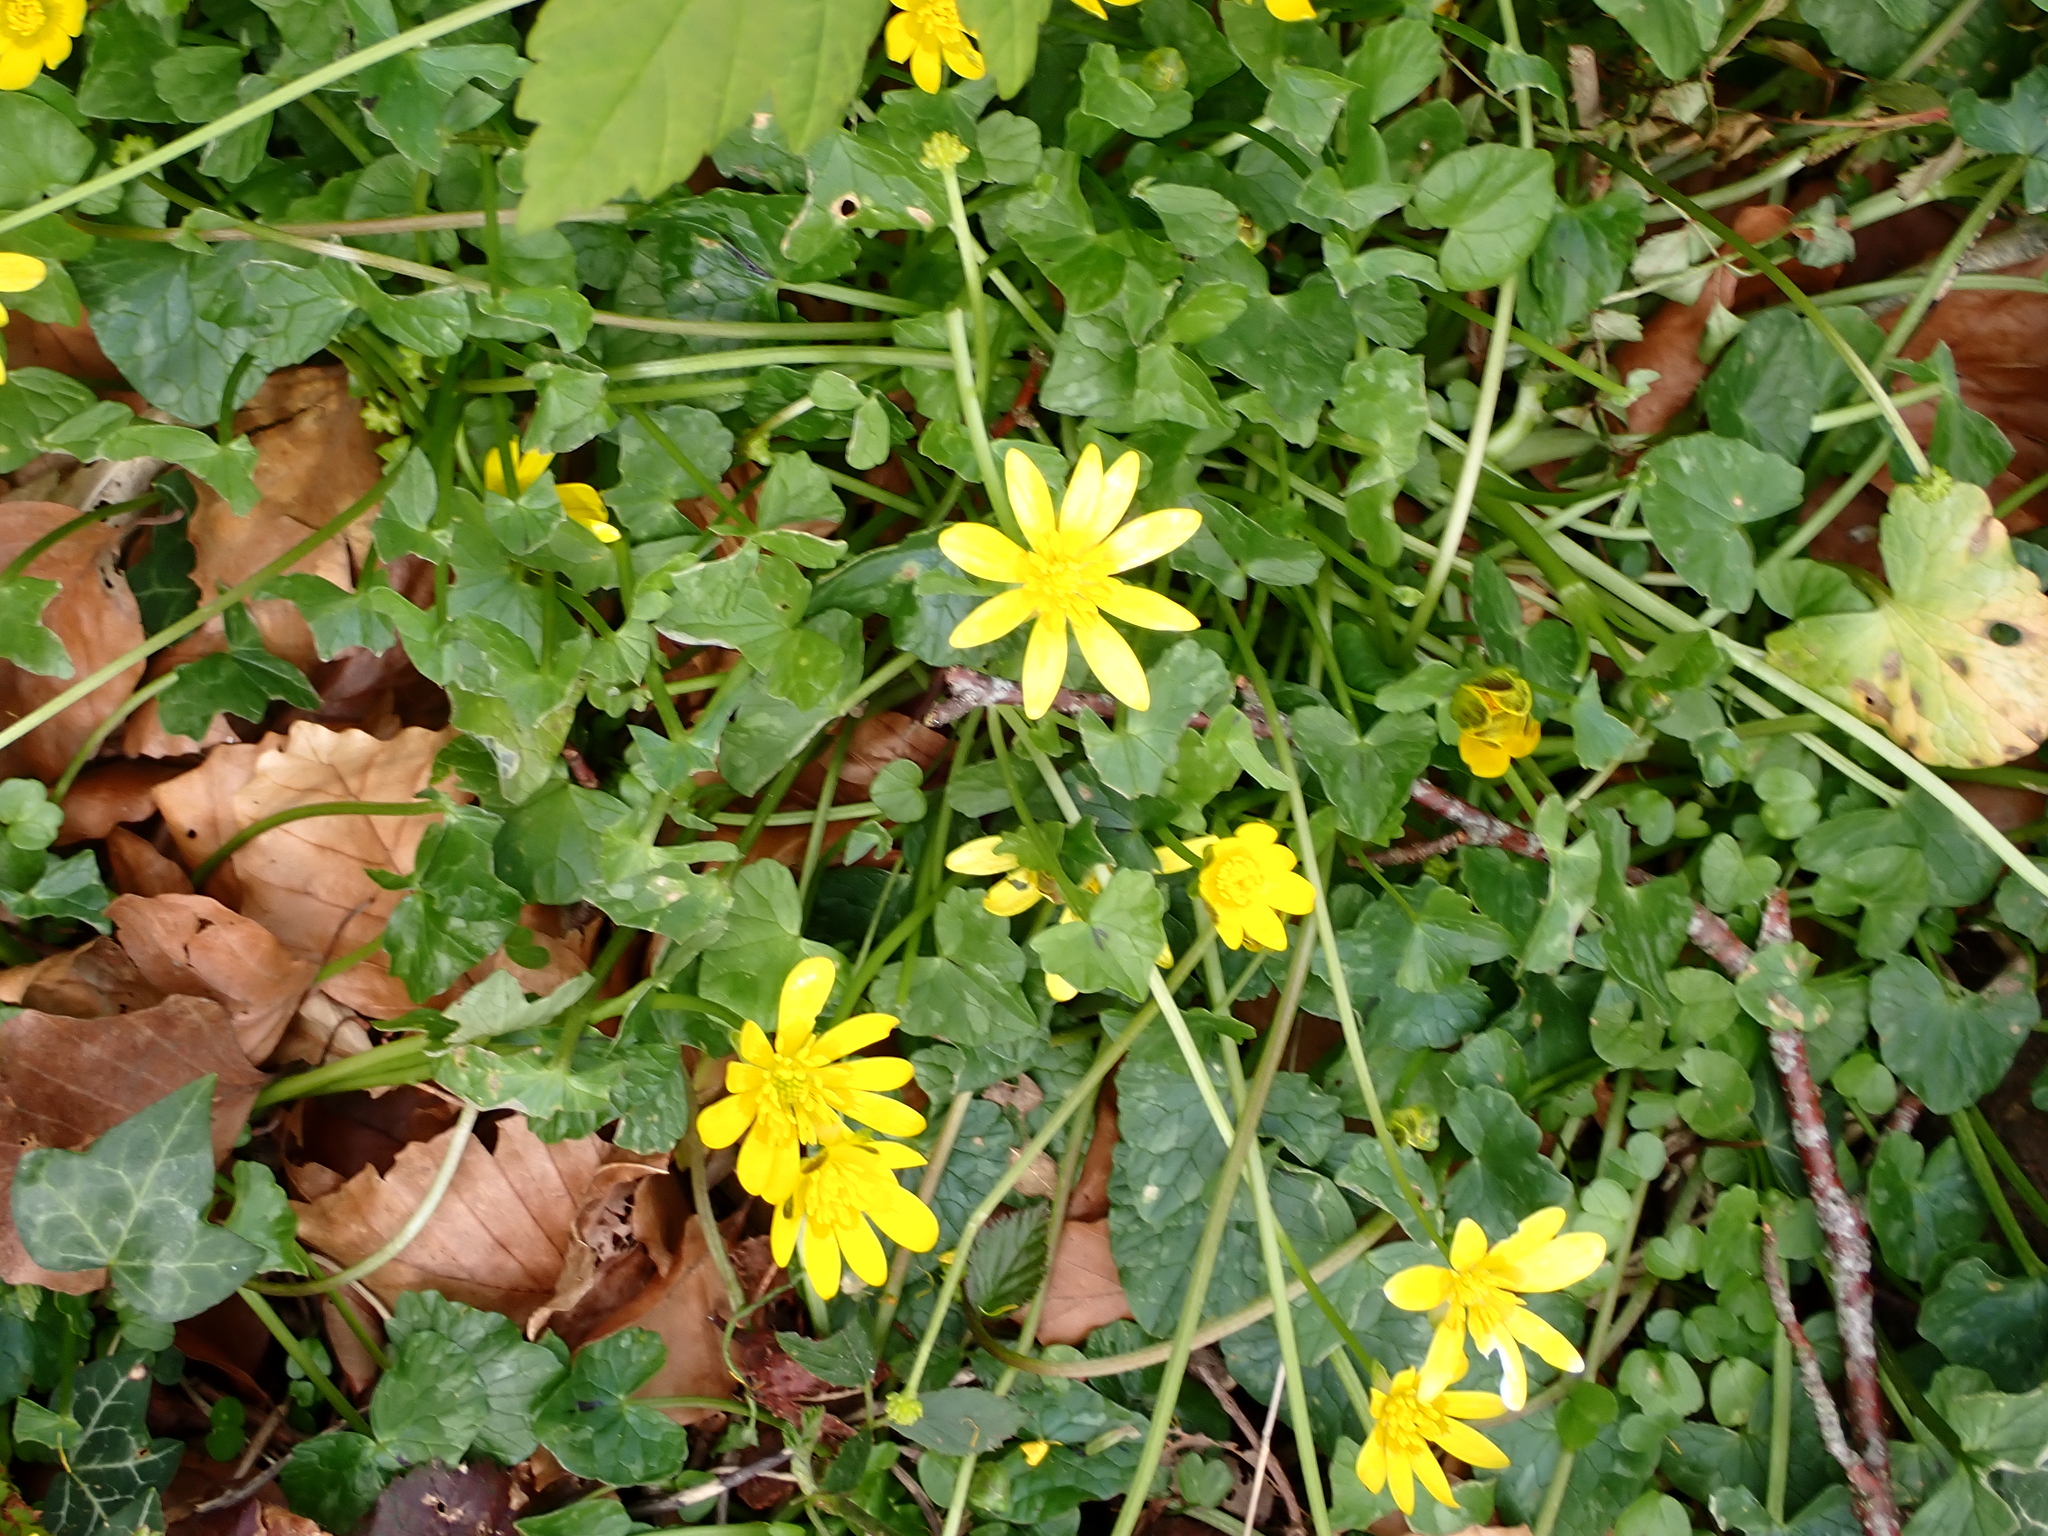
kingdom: Plantae
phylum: Tracheophyta
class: Magnoliopsida
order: Ranunculales
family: Ranunculaceae
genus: Ficaria
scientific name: Ficaria verna
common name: Lesser celandine
